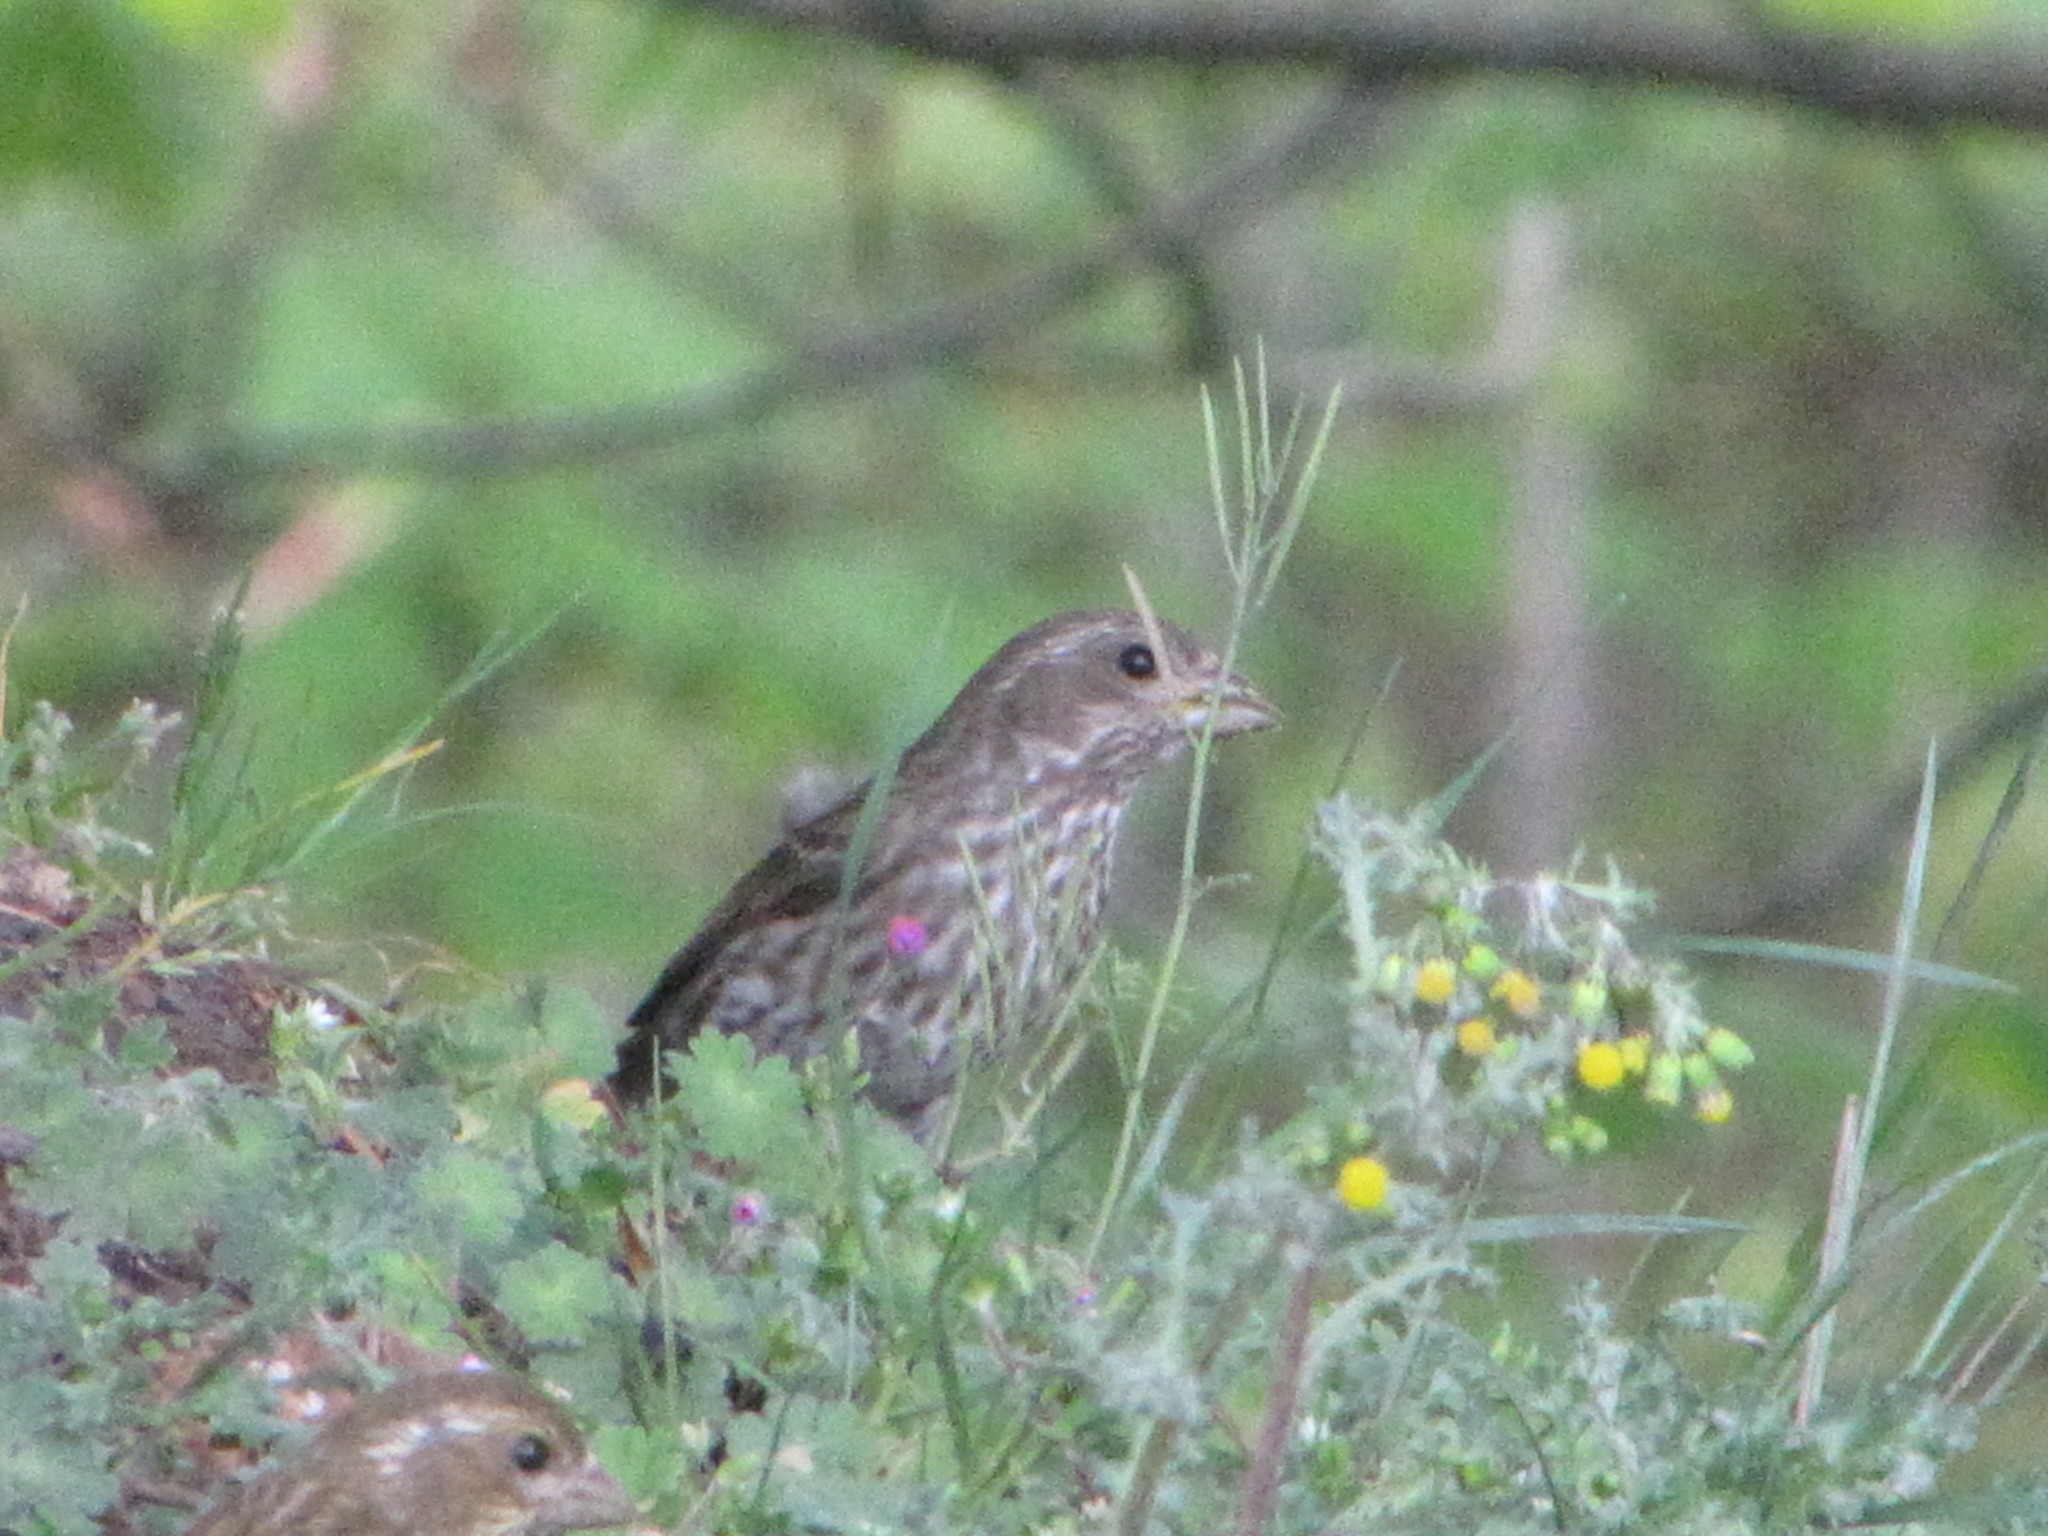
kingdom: Animalia
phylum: Chordata
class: Aves
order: Passeriformes
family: Fringillidae
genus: Haemorhous
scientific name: Haemorhous purpureus
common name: Purple finch
